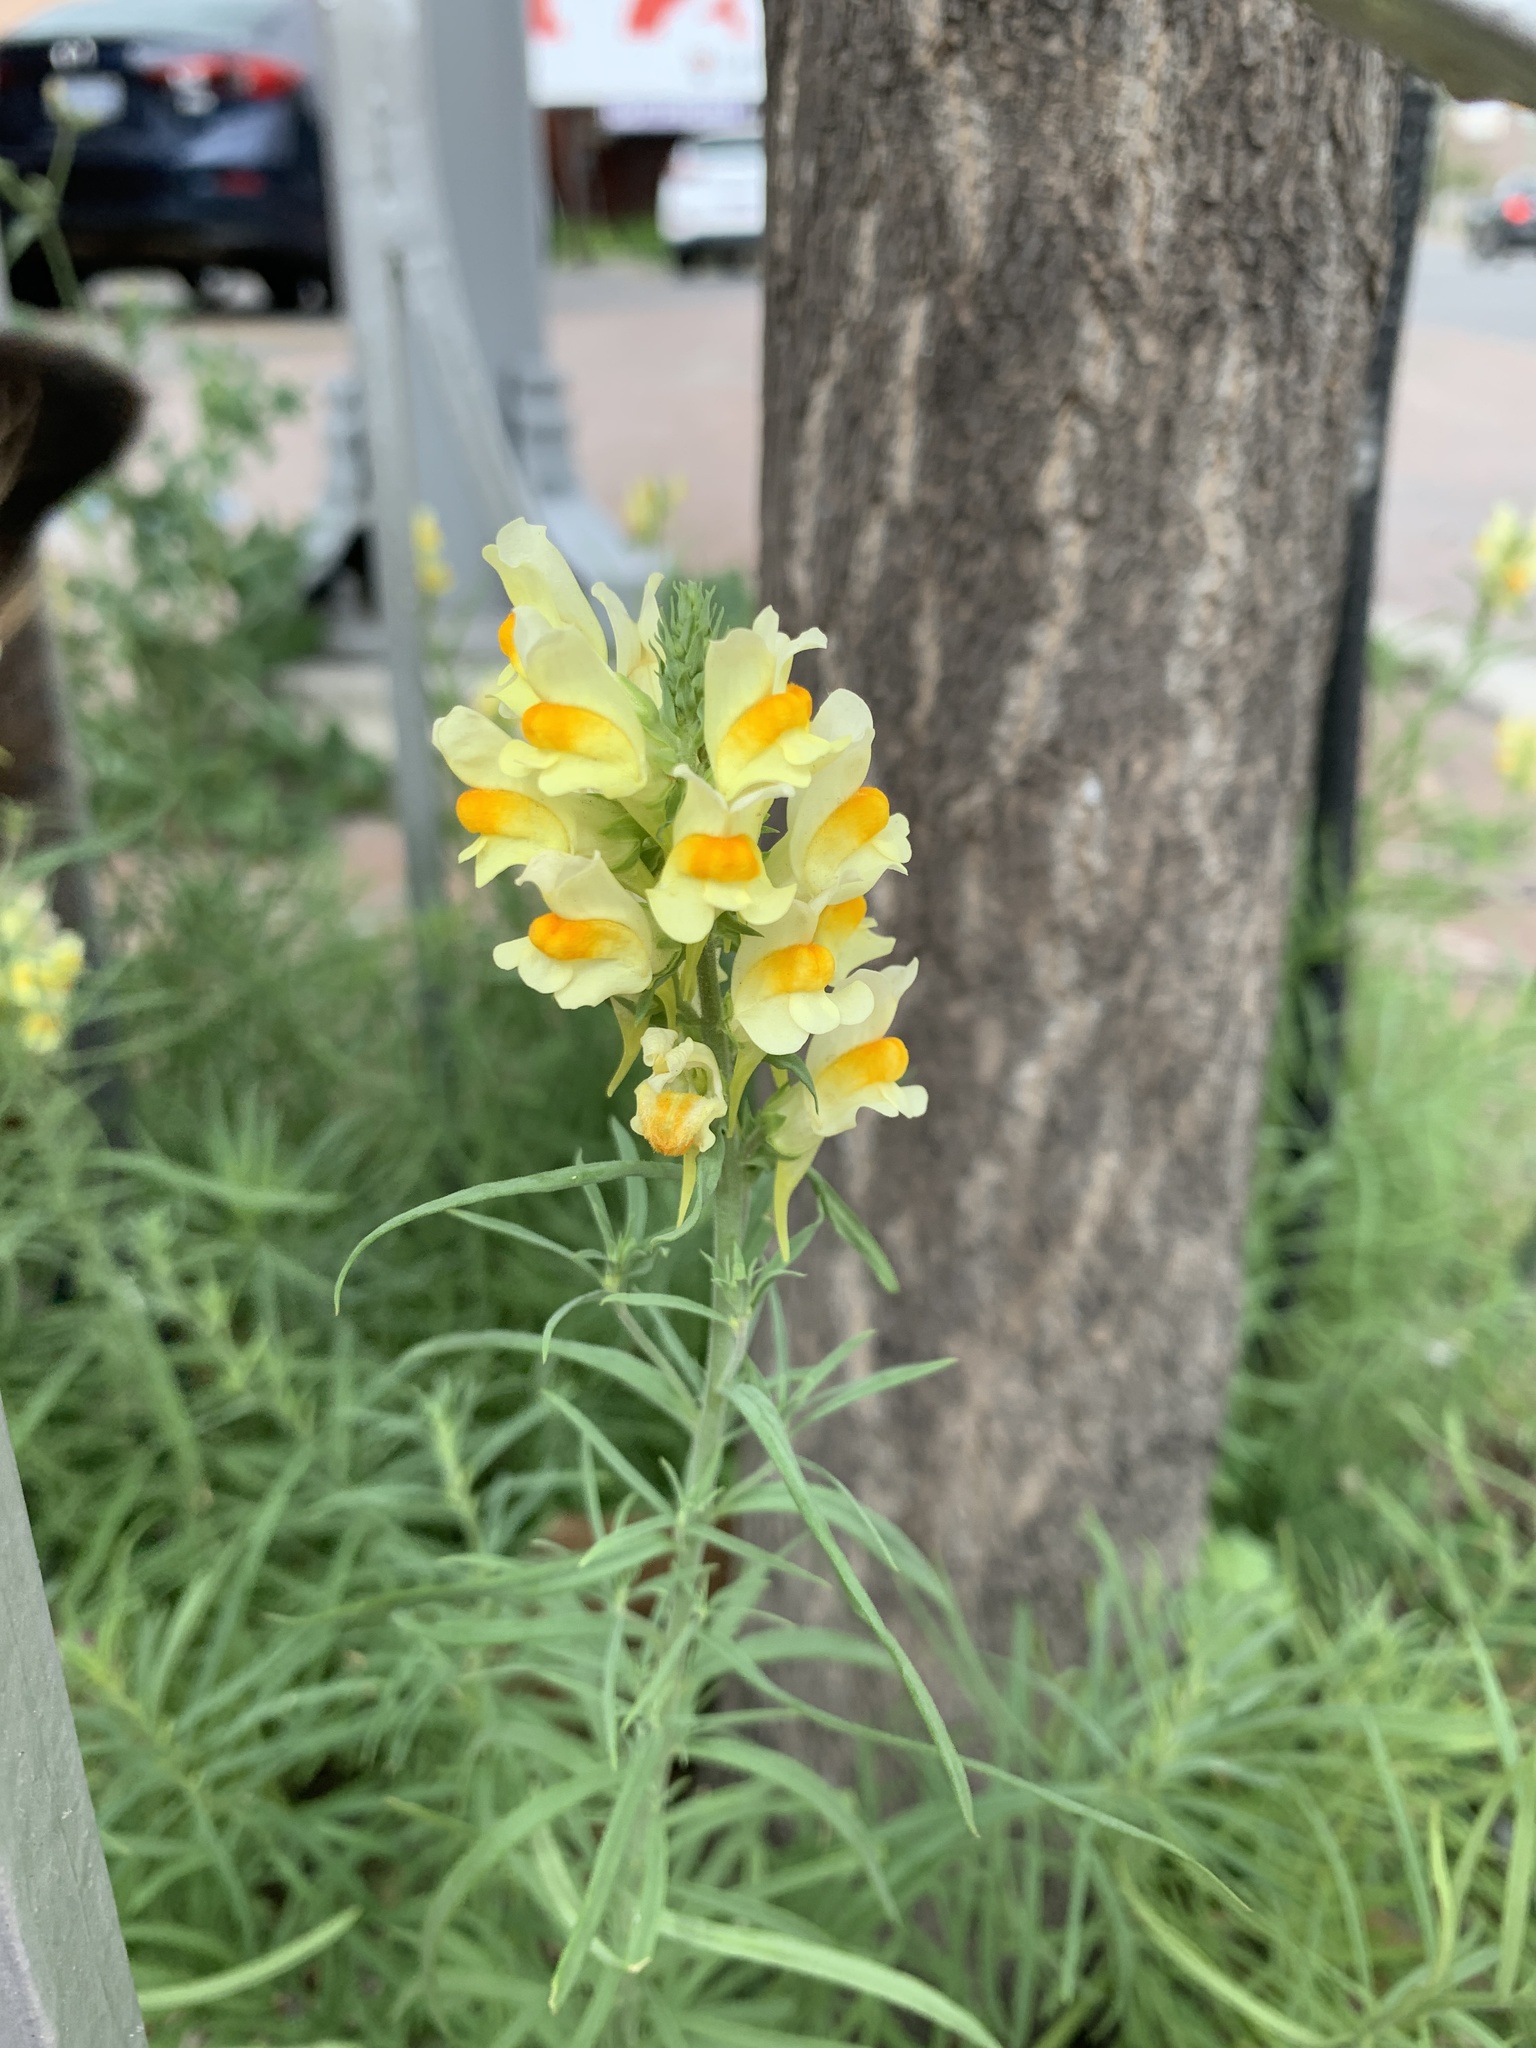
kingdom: Plantae
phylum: Tracheophyta
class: Magnoliopsida
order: Lamiales
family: Plantaginaceae
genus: Linaria
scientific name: Linaria vulgaris
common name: Butter and eggs
